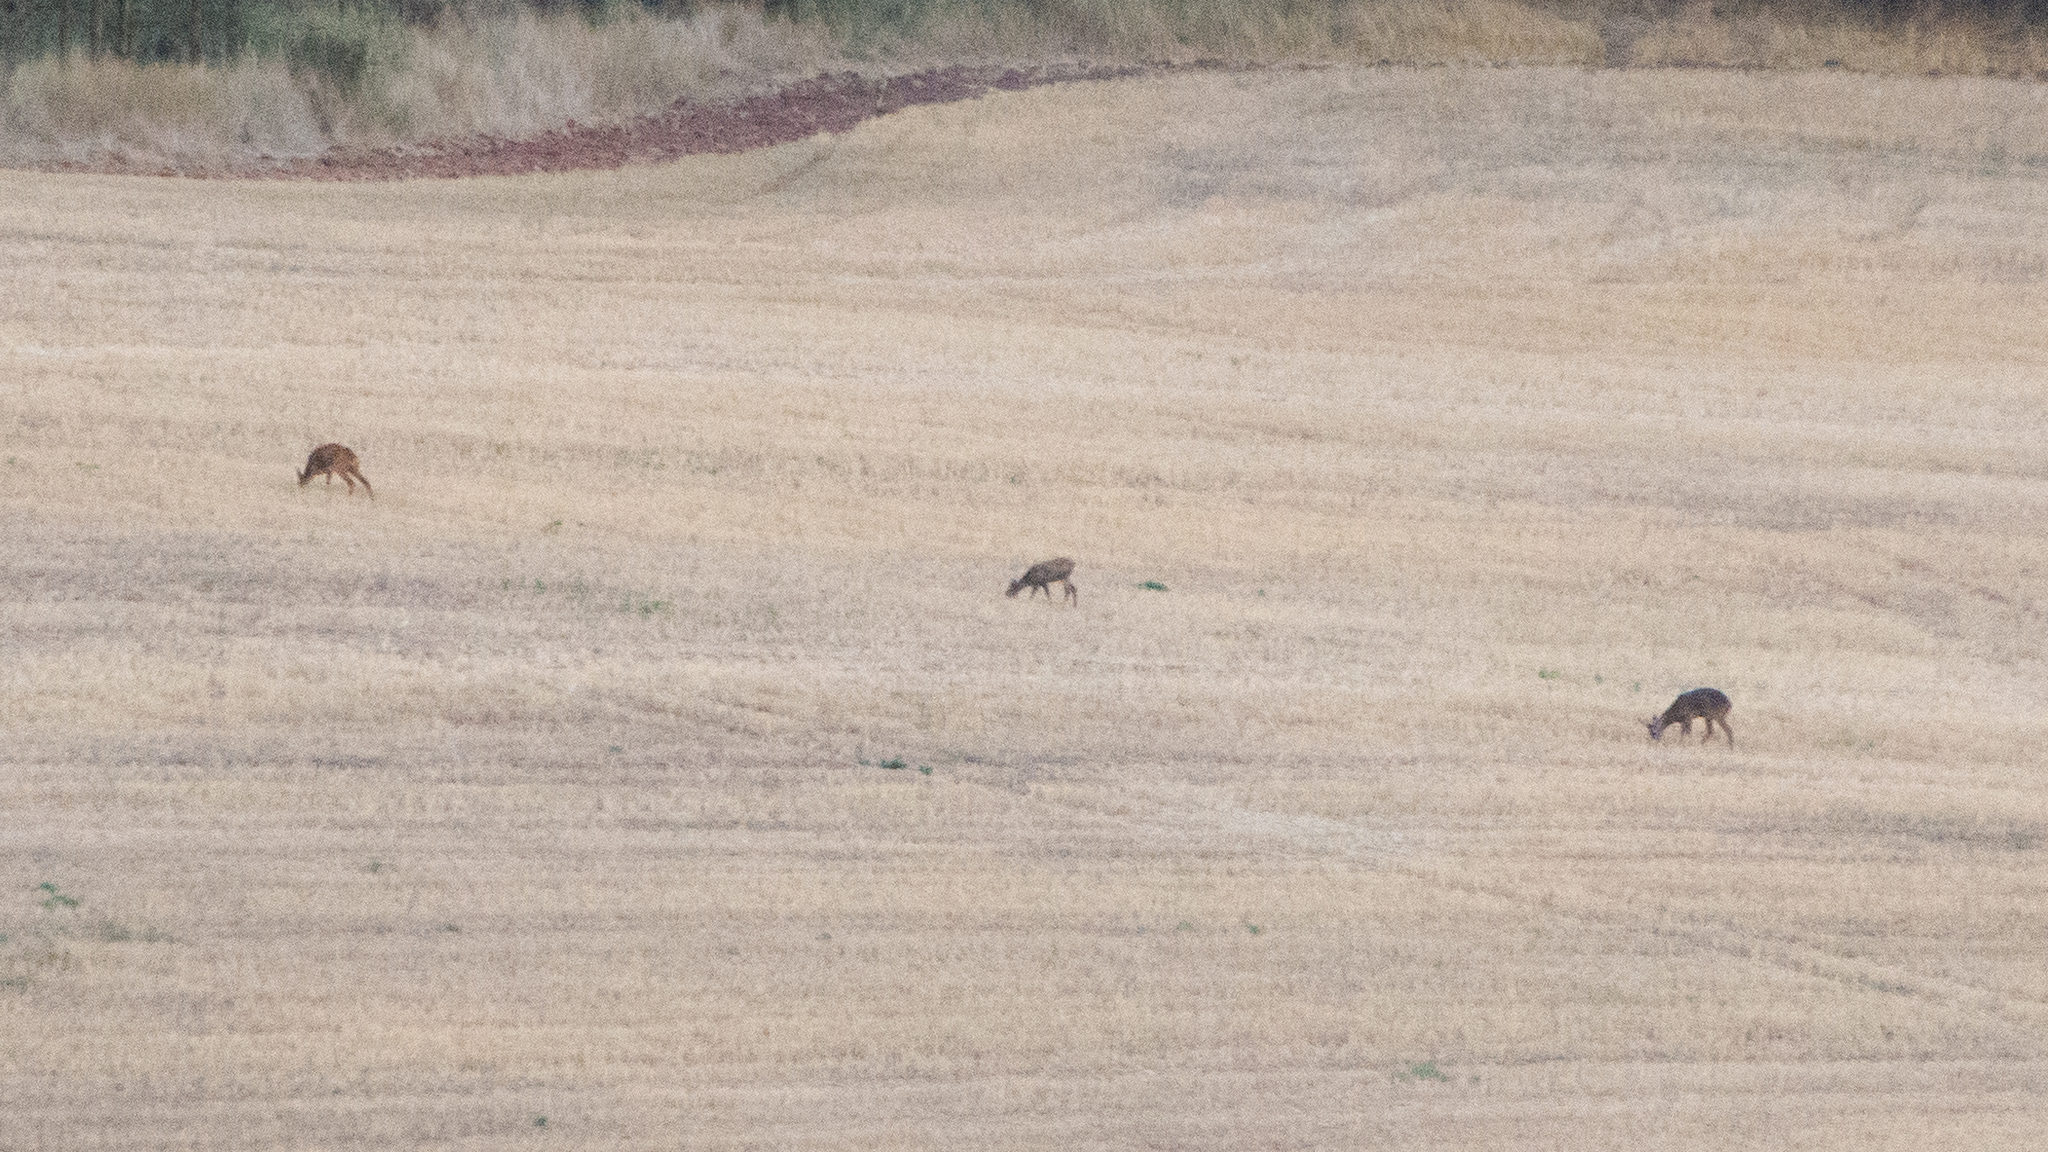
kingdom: Animalia
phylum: Chordata
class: Mammalia
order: Artiodactyla
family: Cervidae
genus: Capreolus
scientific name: Capreolus capreolus
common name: Western roe deer
